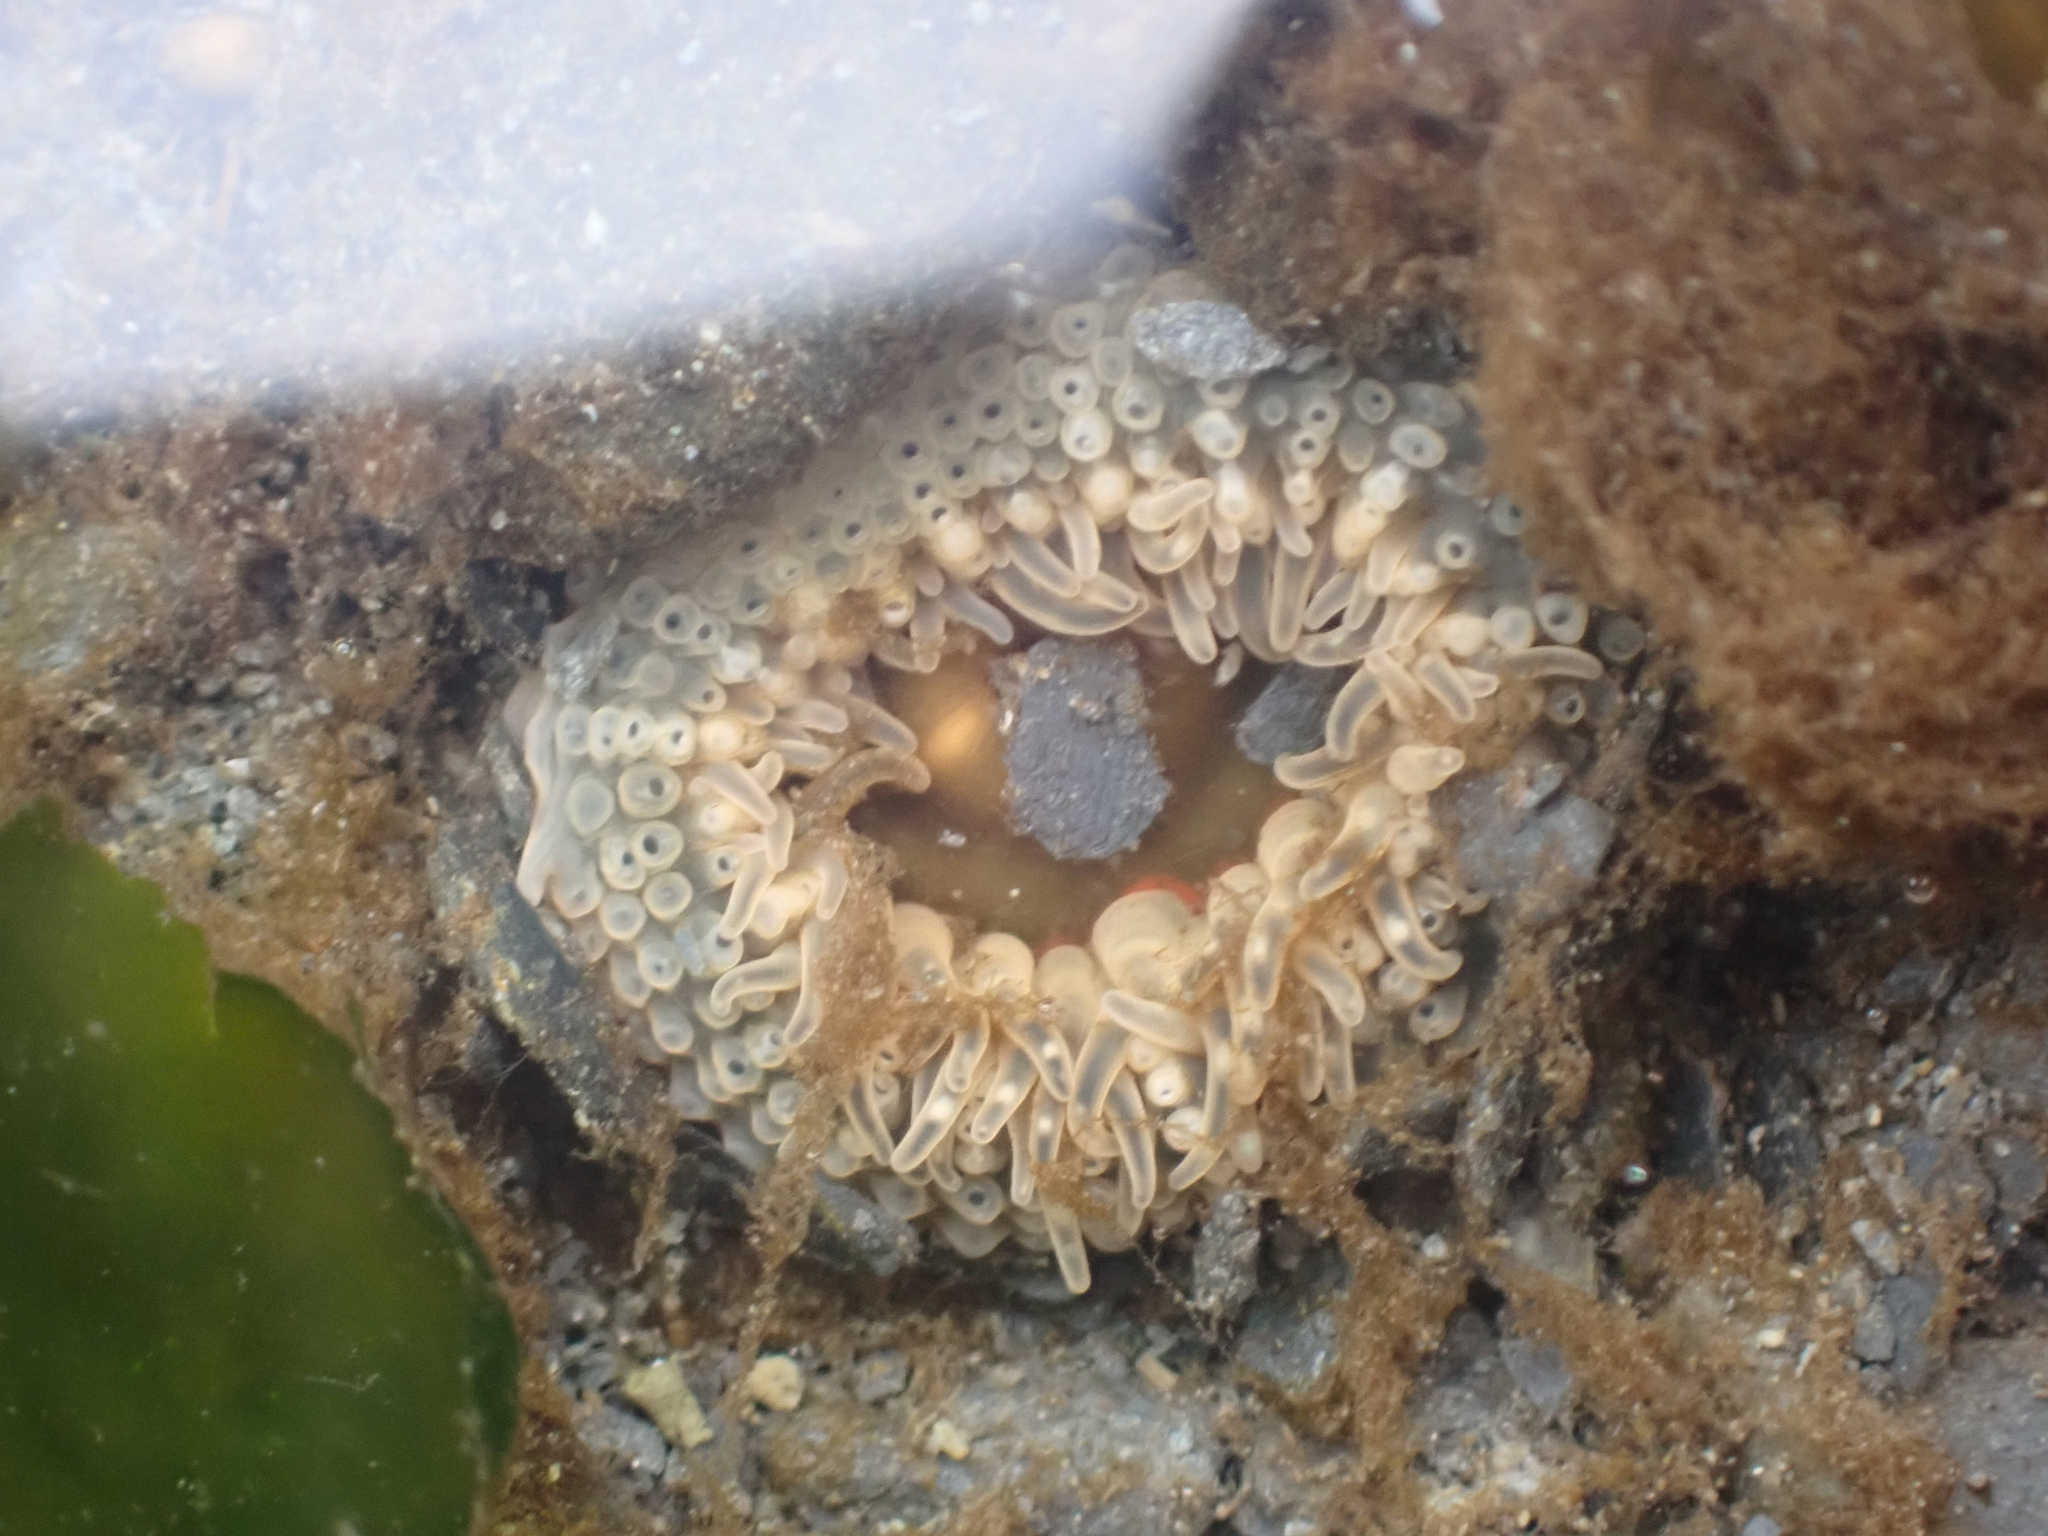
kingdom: Animalia
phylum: Cnidaria
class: Anthozoa
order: Actiniaria
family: Actiniidae
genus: Anthopleura
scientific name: Anthopleura artemisia
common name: Buried sea anemone
